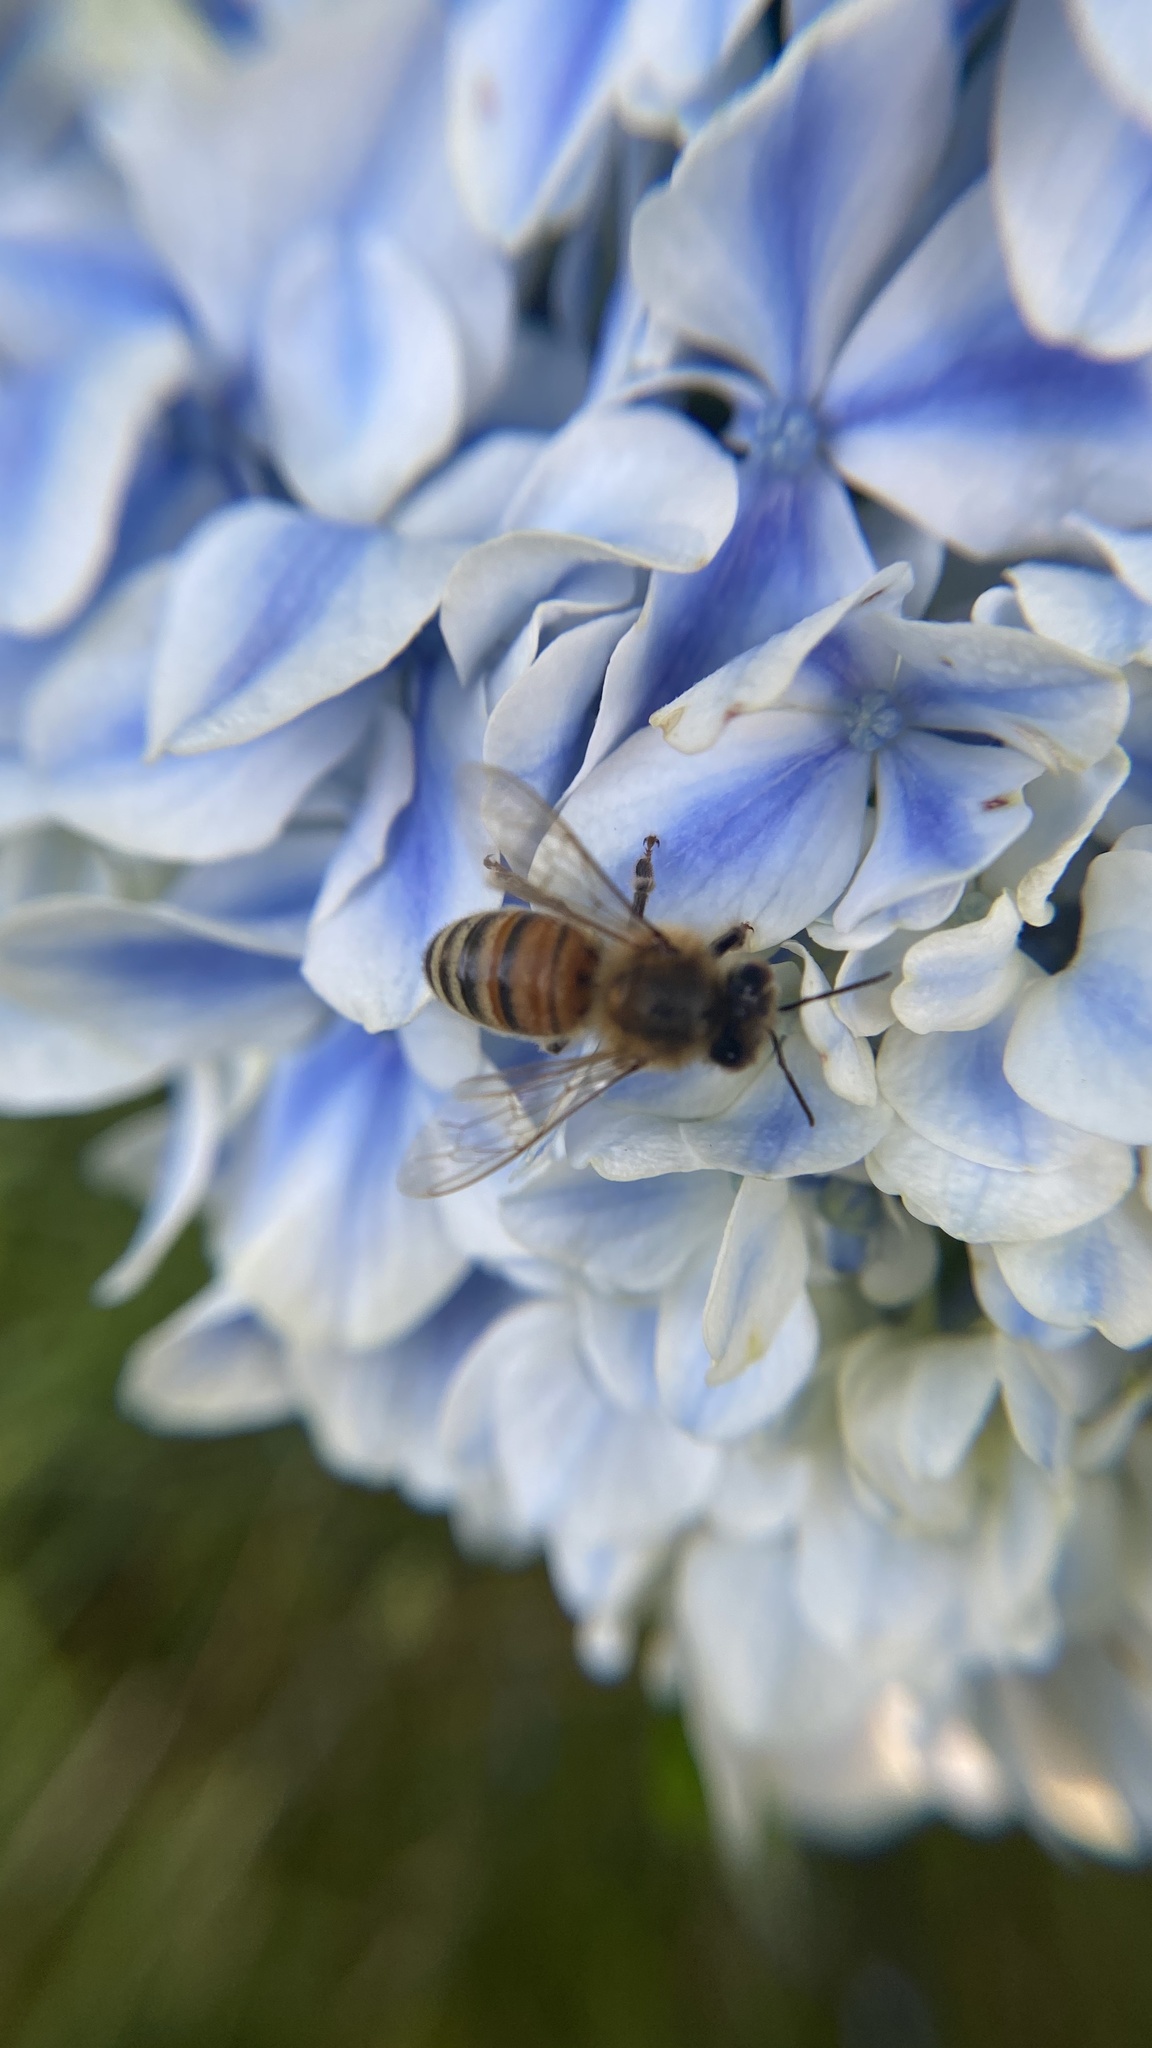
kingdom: Animalia
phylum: Arthropoda
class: Insecta
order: Hymenoptera
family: Apidae
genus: Apis
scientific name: Apis mellifera
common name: Honey bee
